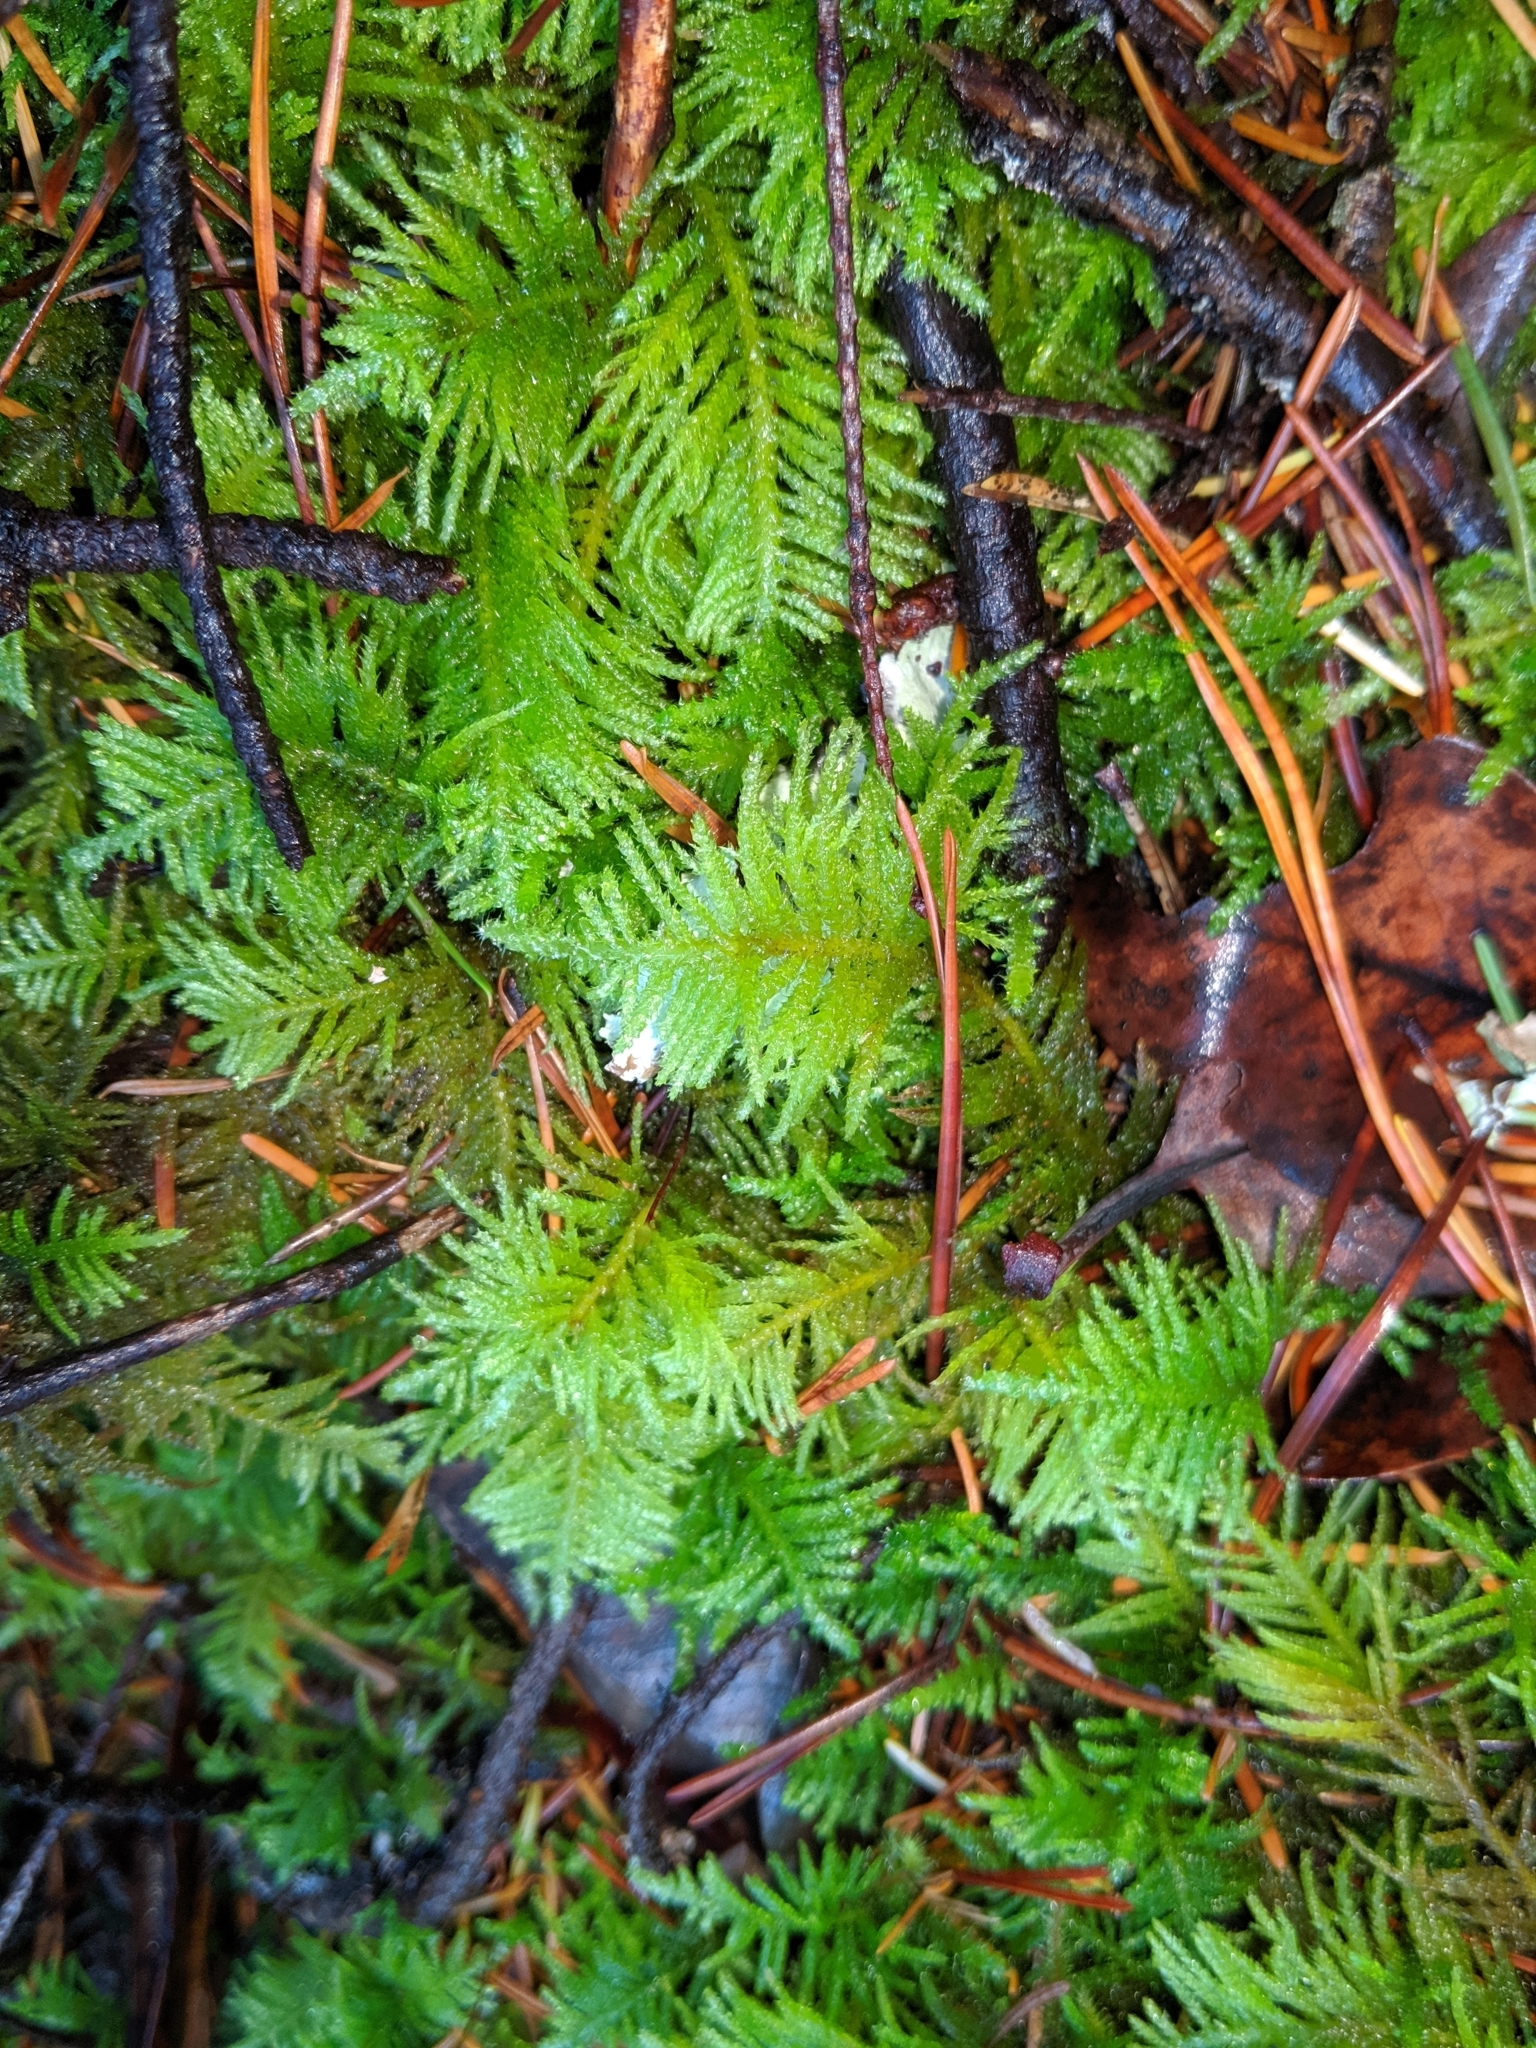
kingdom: Plantae
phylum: Bryophyta
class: Bryopsida
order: Hypnales
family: Brachytheciaceae
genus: Kindbergia
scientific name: Kindbergia oregana
